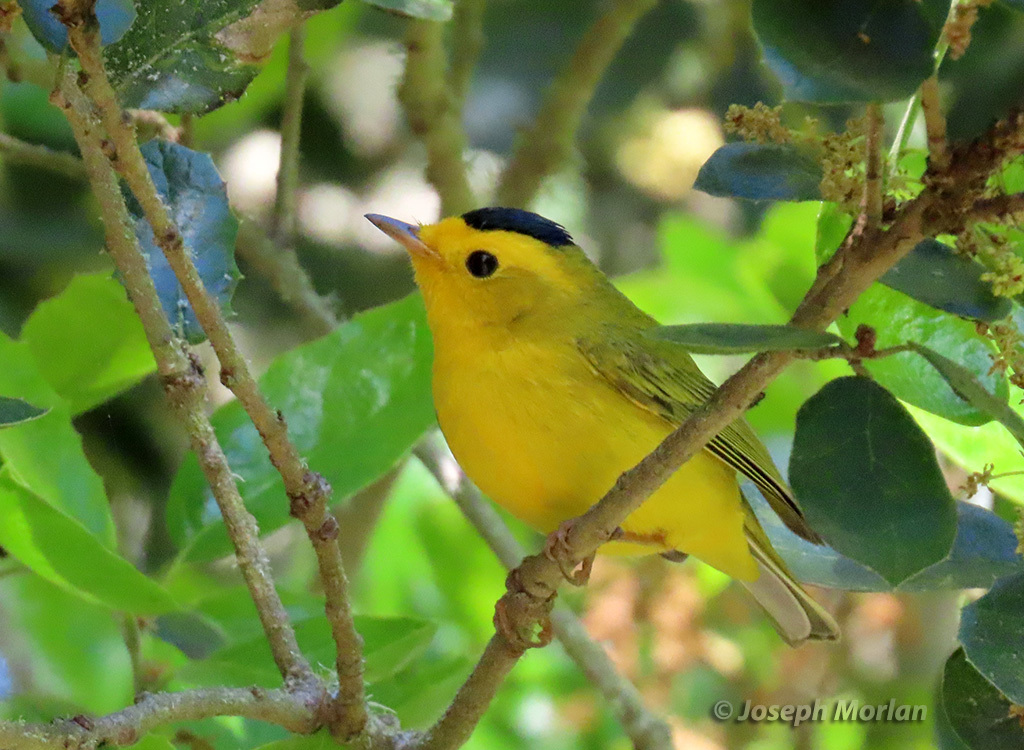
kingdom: Animalia
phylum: Chordata
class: Aves
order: Passeriformes
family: Parulidae
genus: Cardellina
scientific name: Cardellina pusilla
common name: Wilson's warbler
